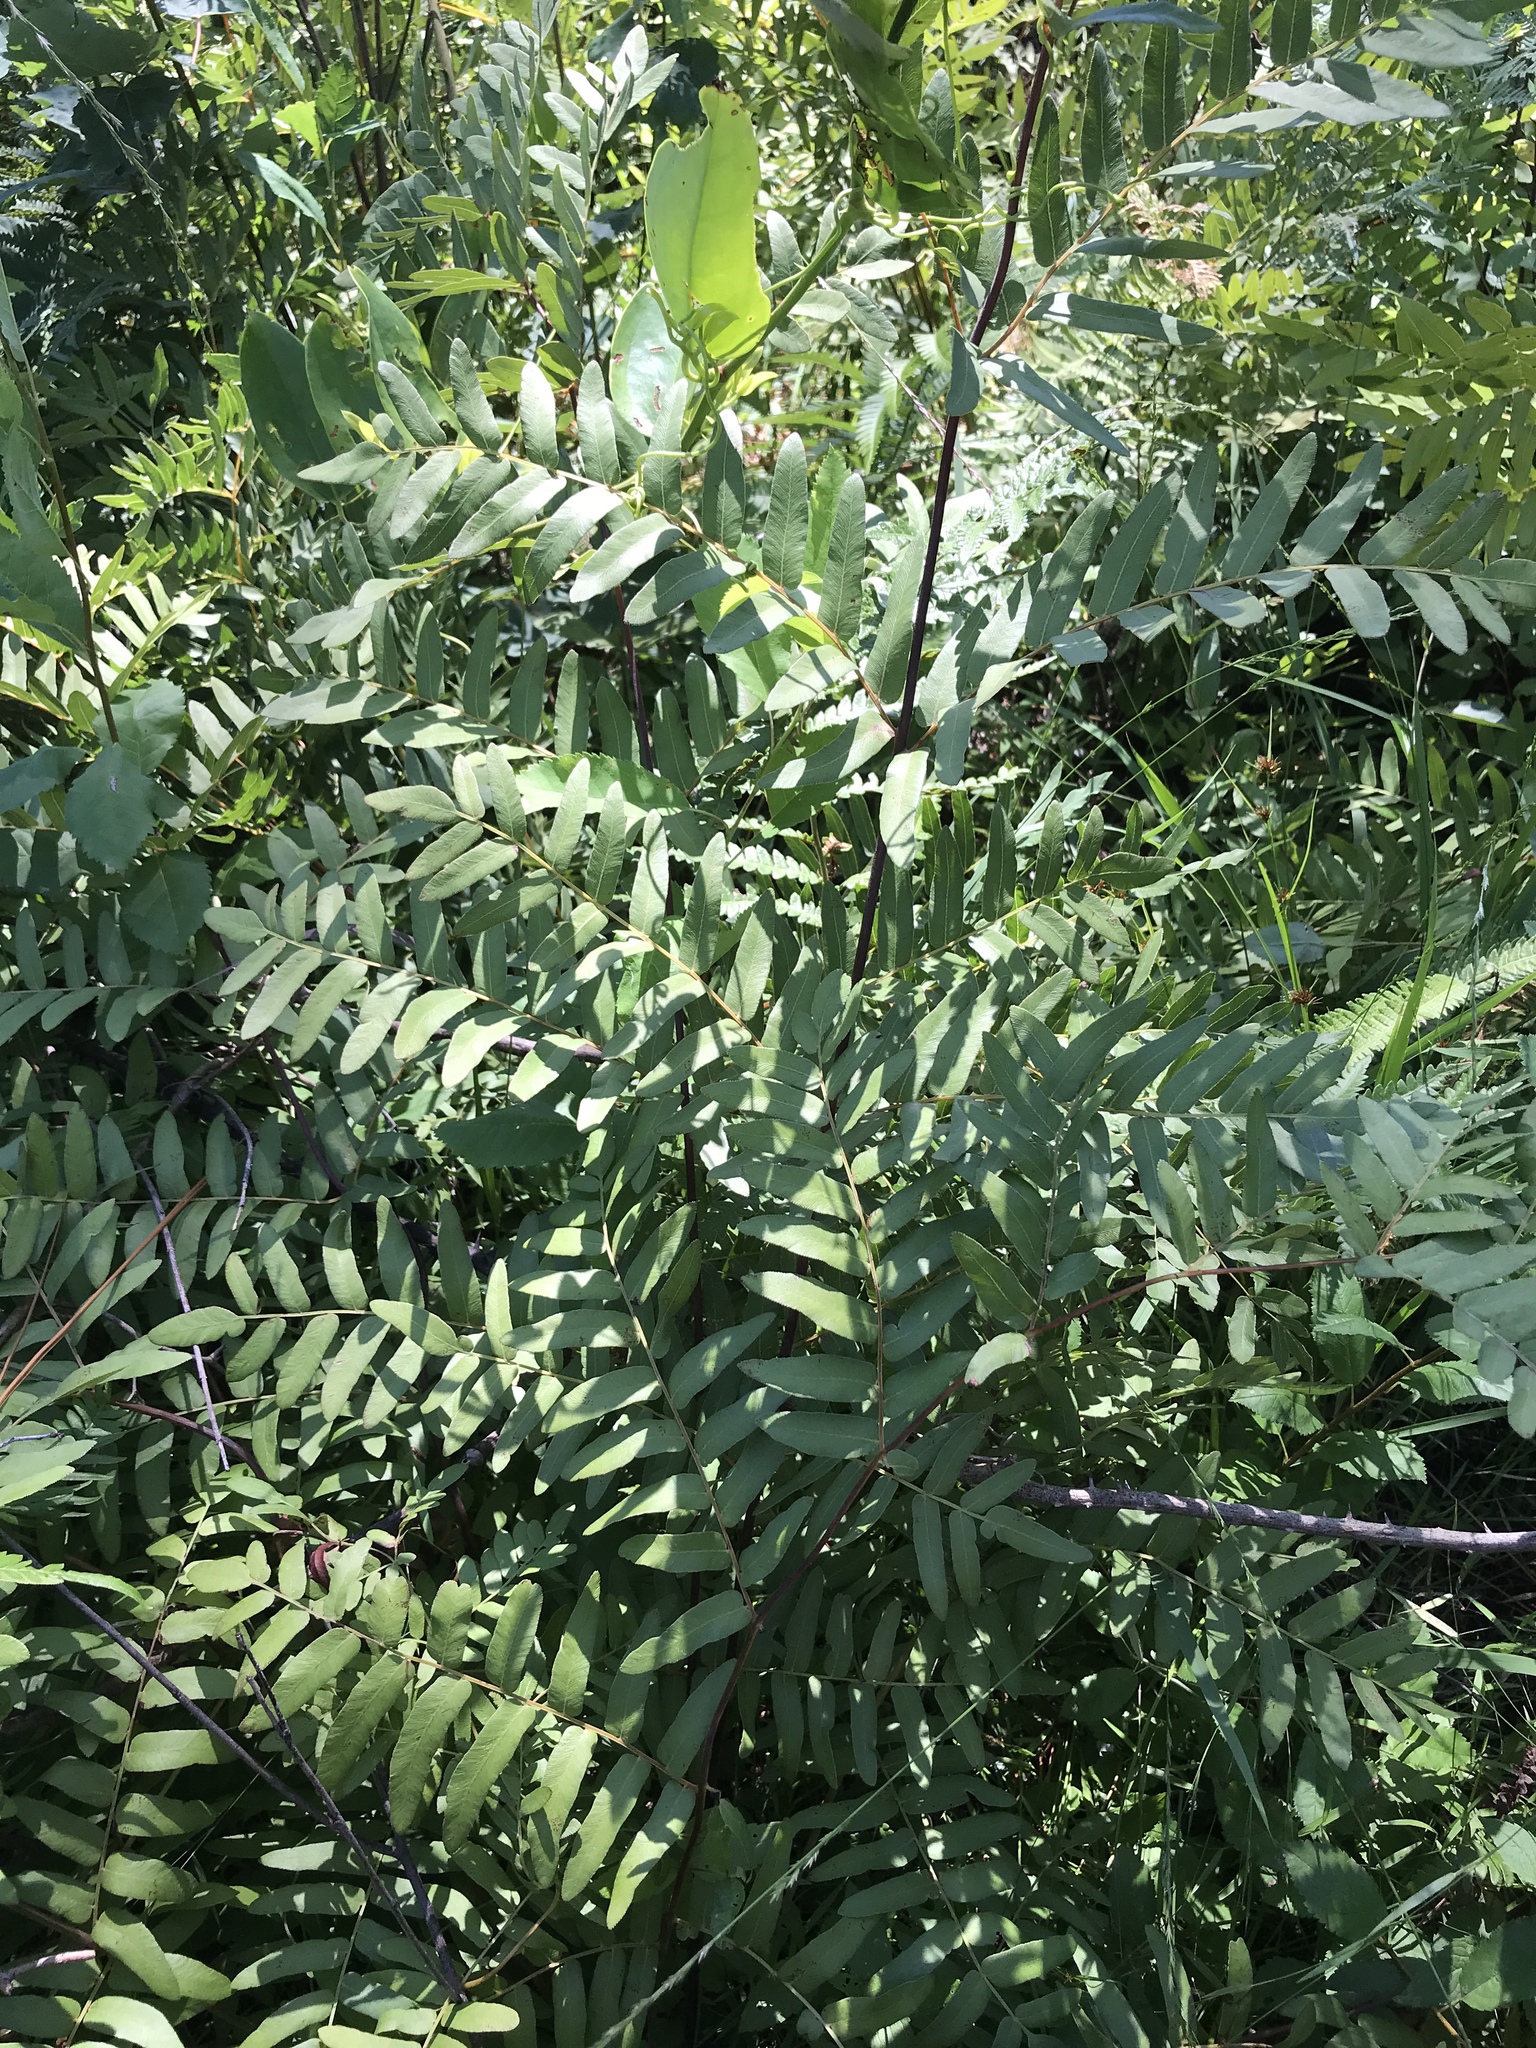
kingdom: Plantae
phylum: Tracheophyta
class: Polypodiopsida
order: Osmundales
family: Osmundaceae
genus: Osmunda
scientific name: Osmunda spectabilis
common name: American royal fern
